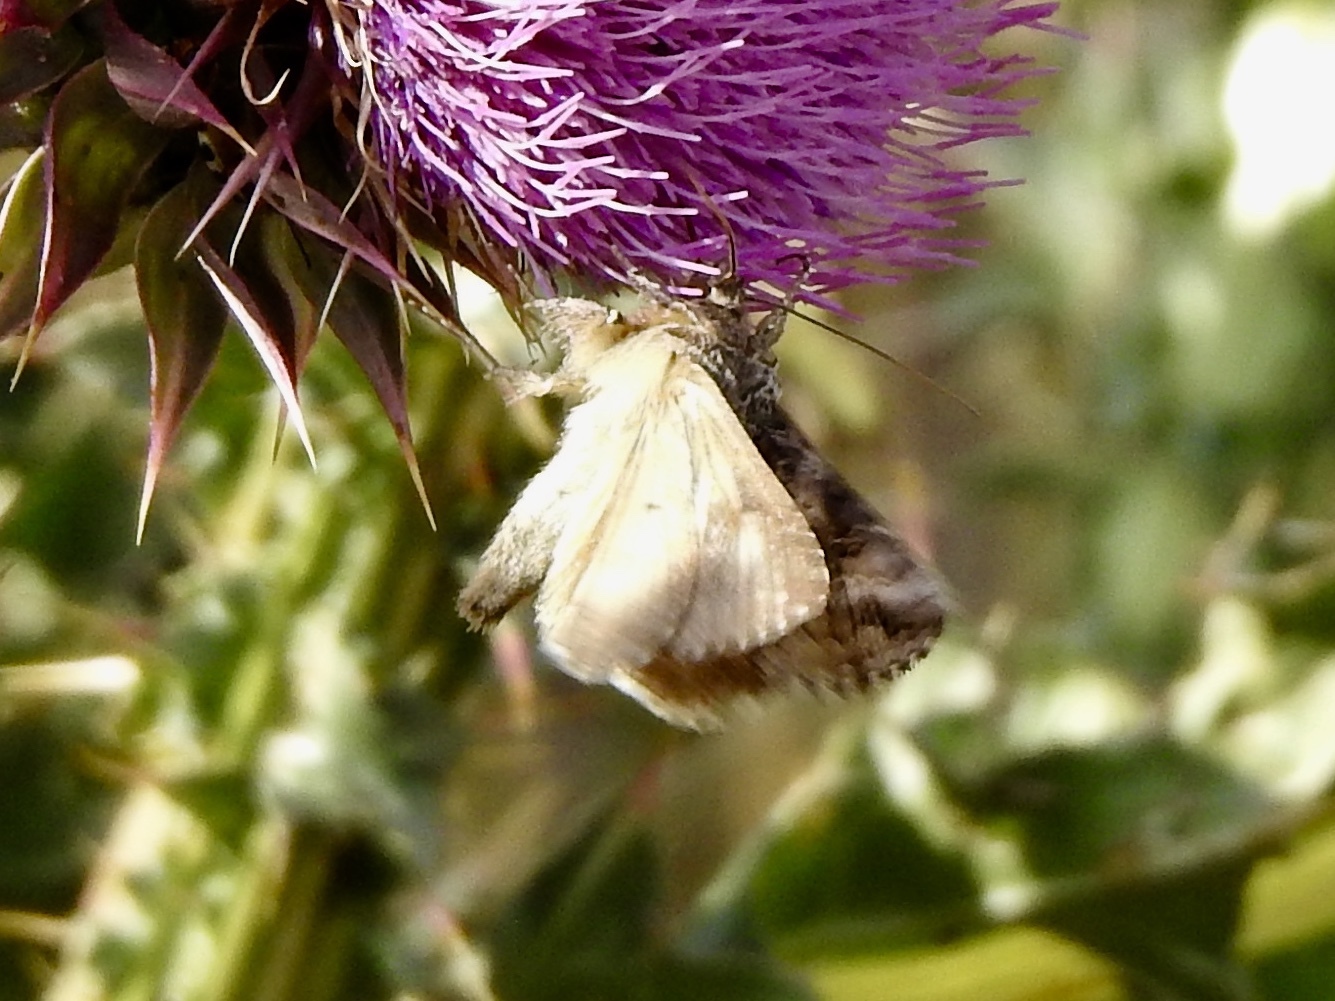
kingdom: Animalia
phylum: Arthropoda
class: Insecta
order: Lepidoptera
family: Noctuidae
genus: Autographa
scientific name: Autographa californica
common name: Alfalfa looper
